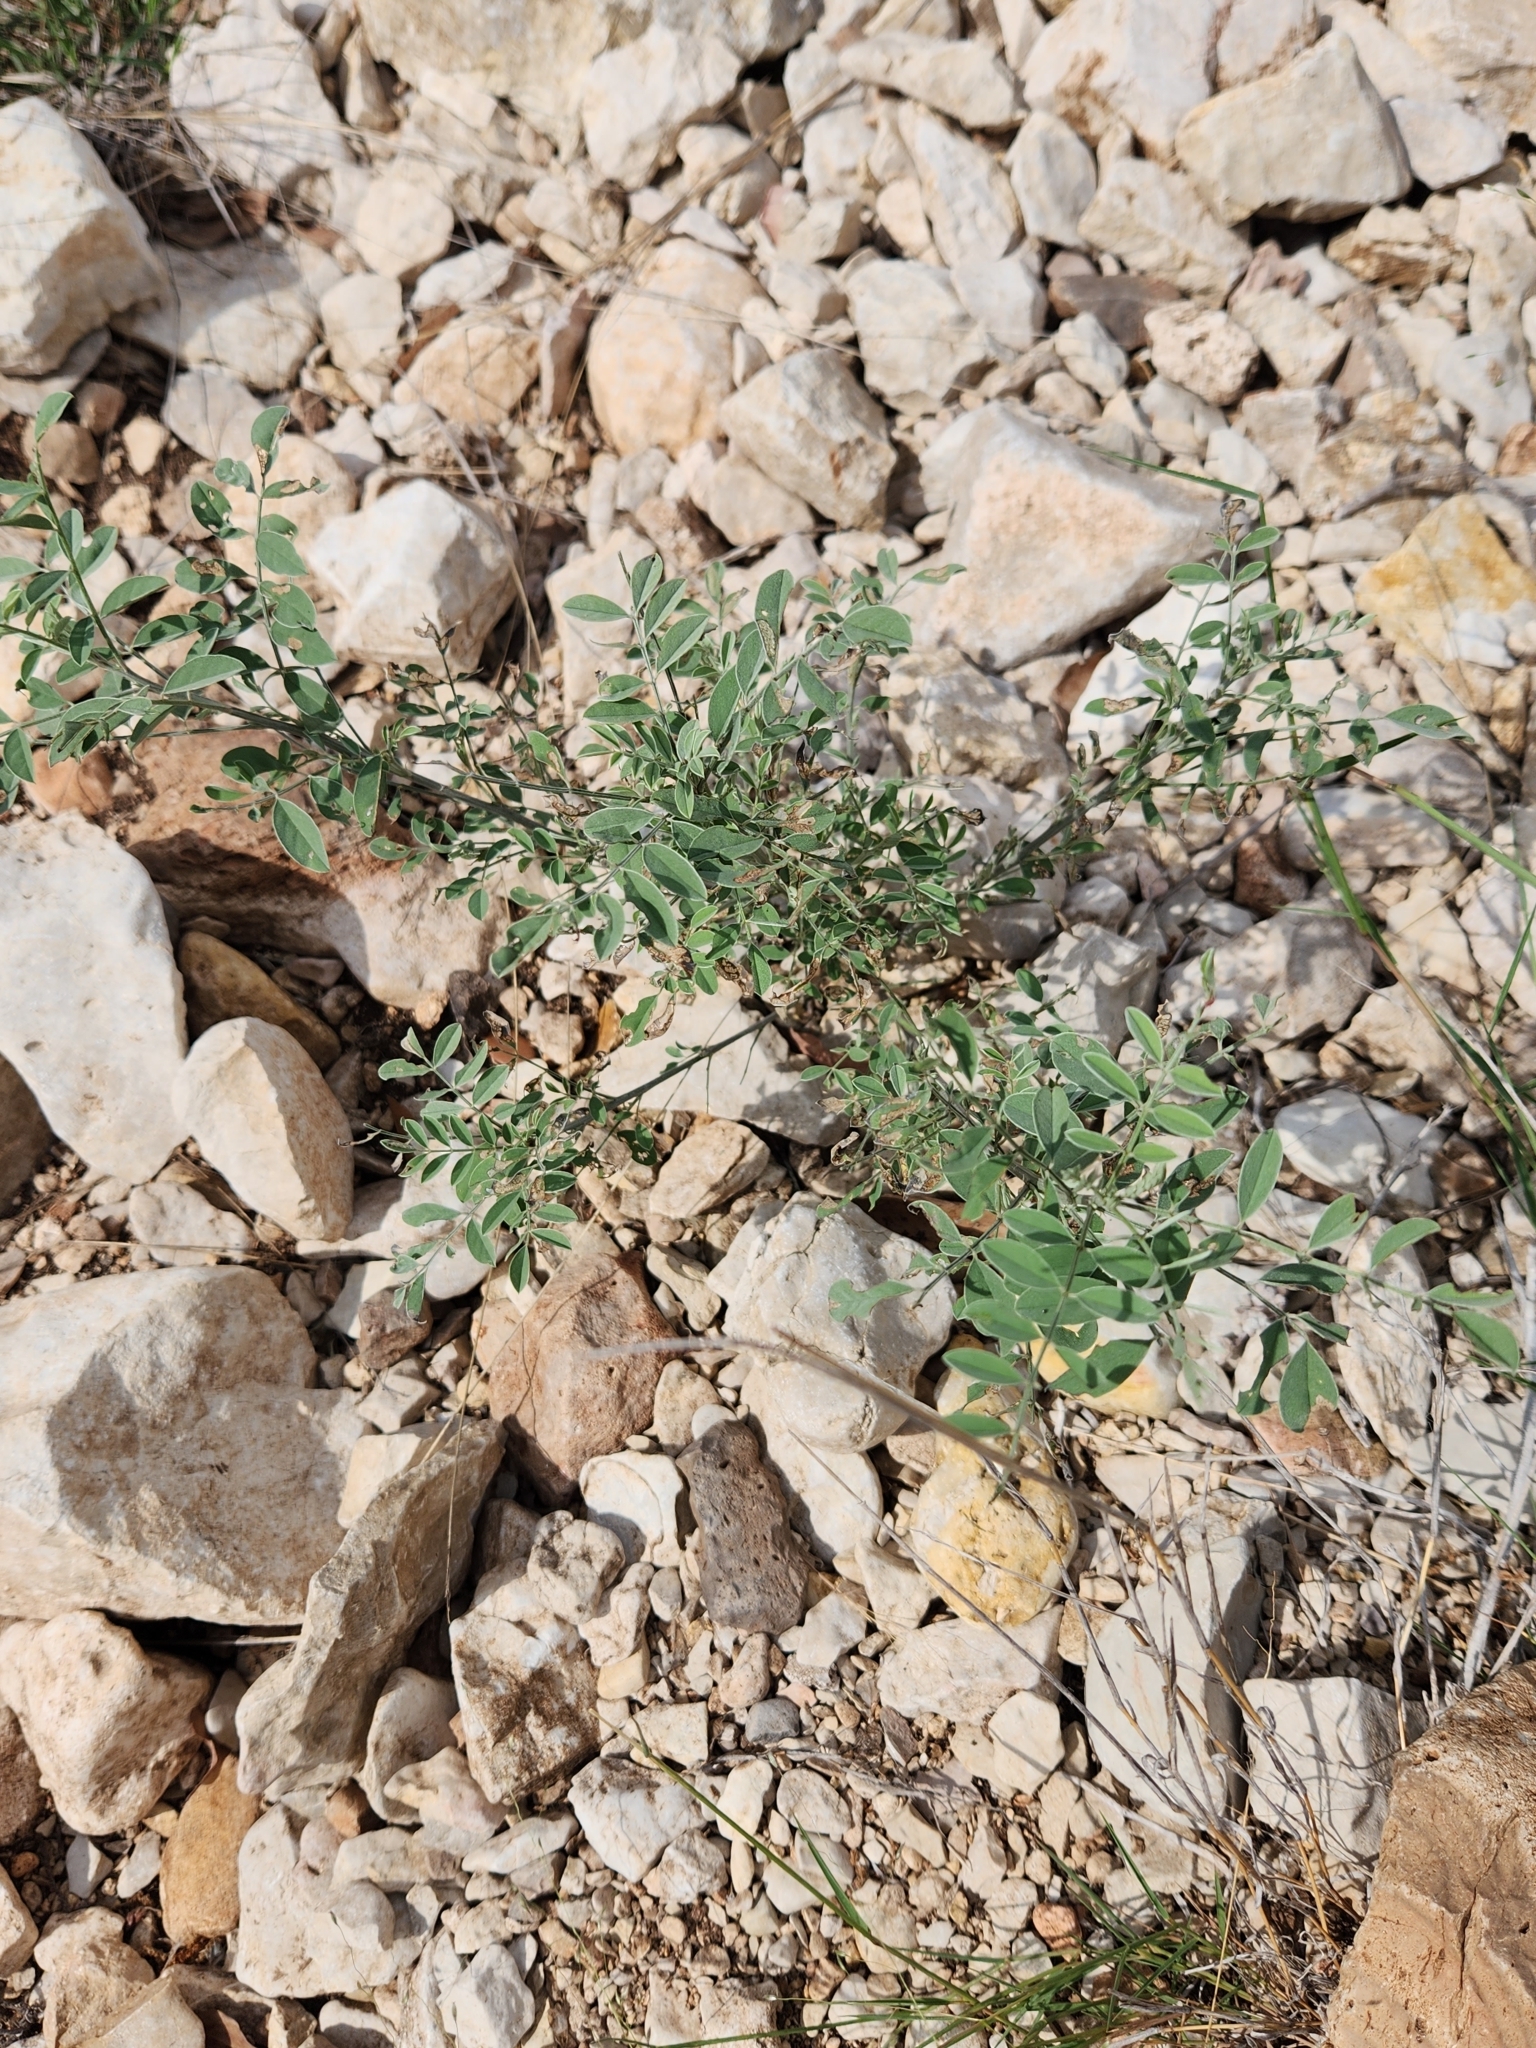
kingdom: Plantae
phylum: Tracheophyta
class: Magnoliopsida
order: Fabales
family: Fabaceae
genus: Indigofera
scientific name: Indigofera lindheimeriana
